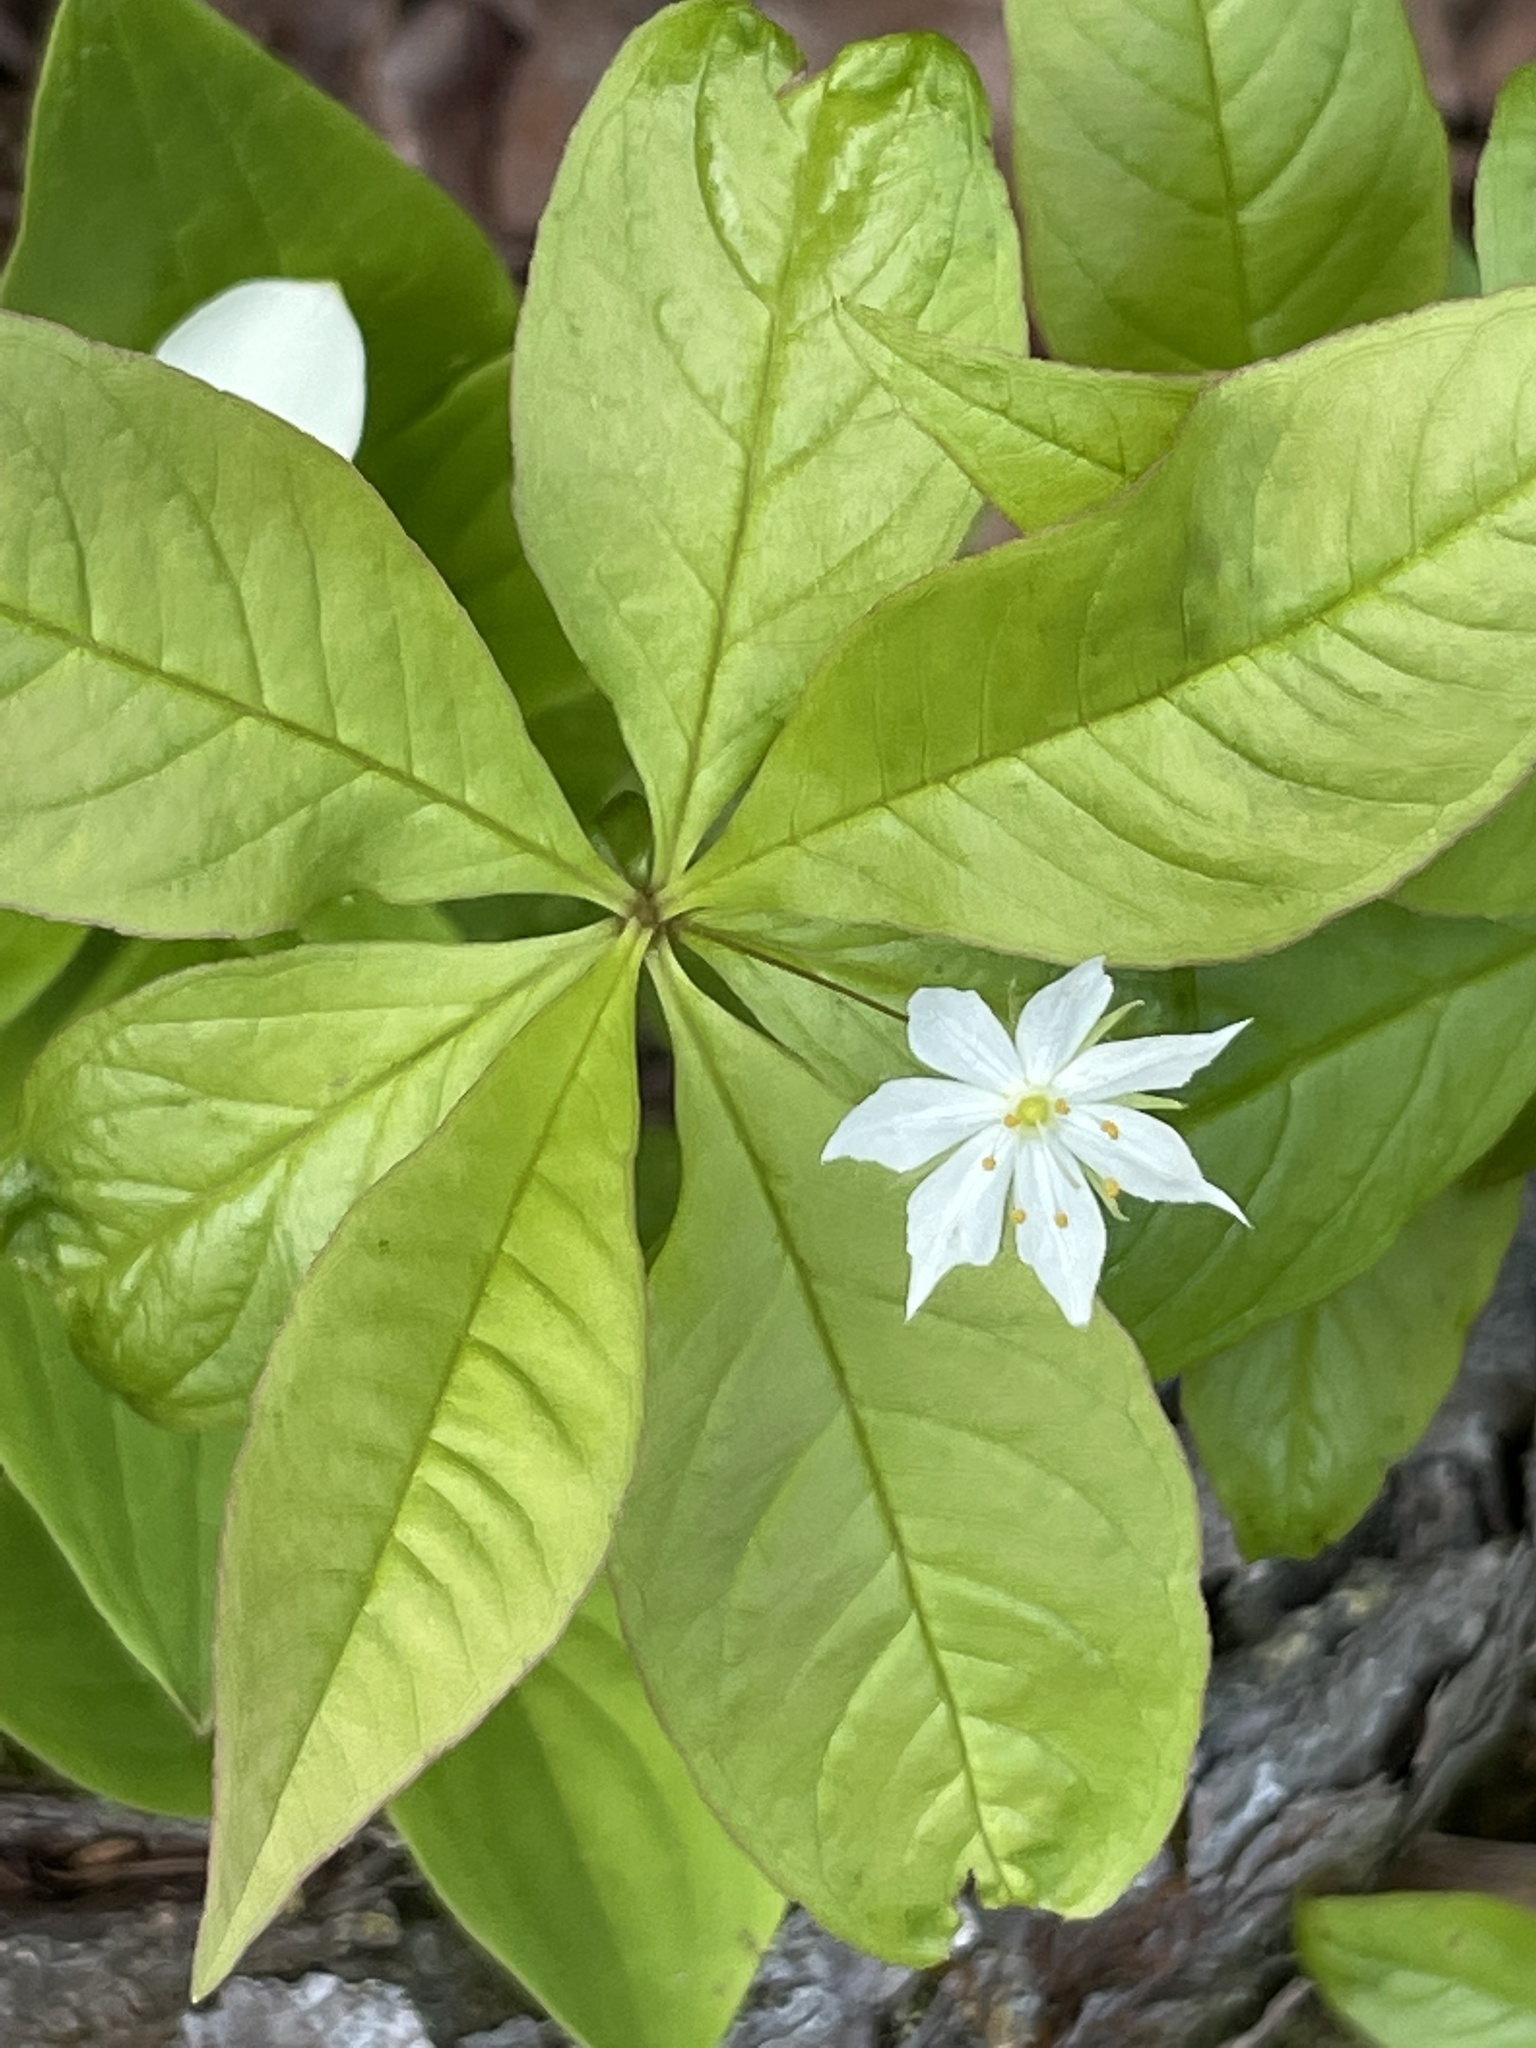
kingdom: Plantae
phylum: Tracheophyta
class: Magnoliopsida
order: Ericales
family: Primulaceae
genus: Lysimachia
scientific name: Lysimachia borealis
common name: American starflower
